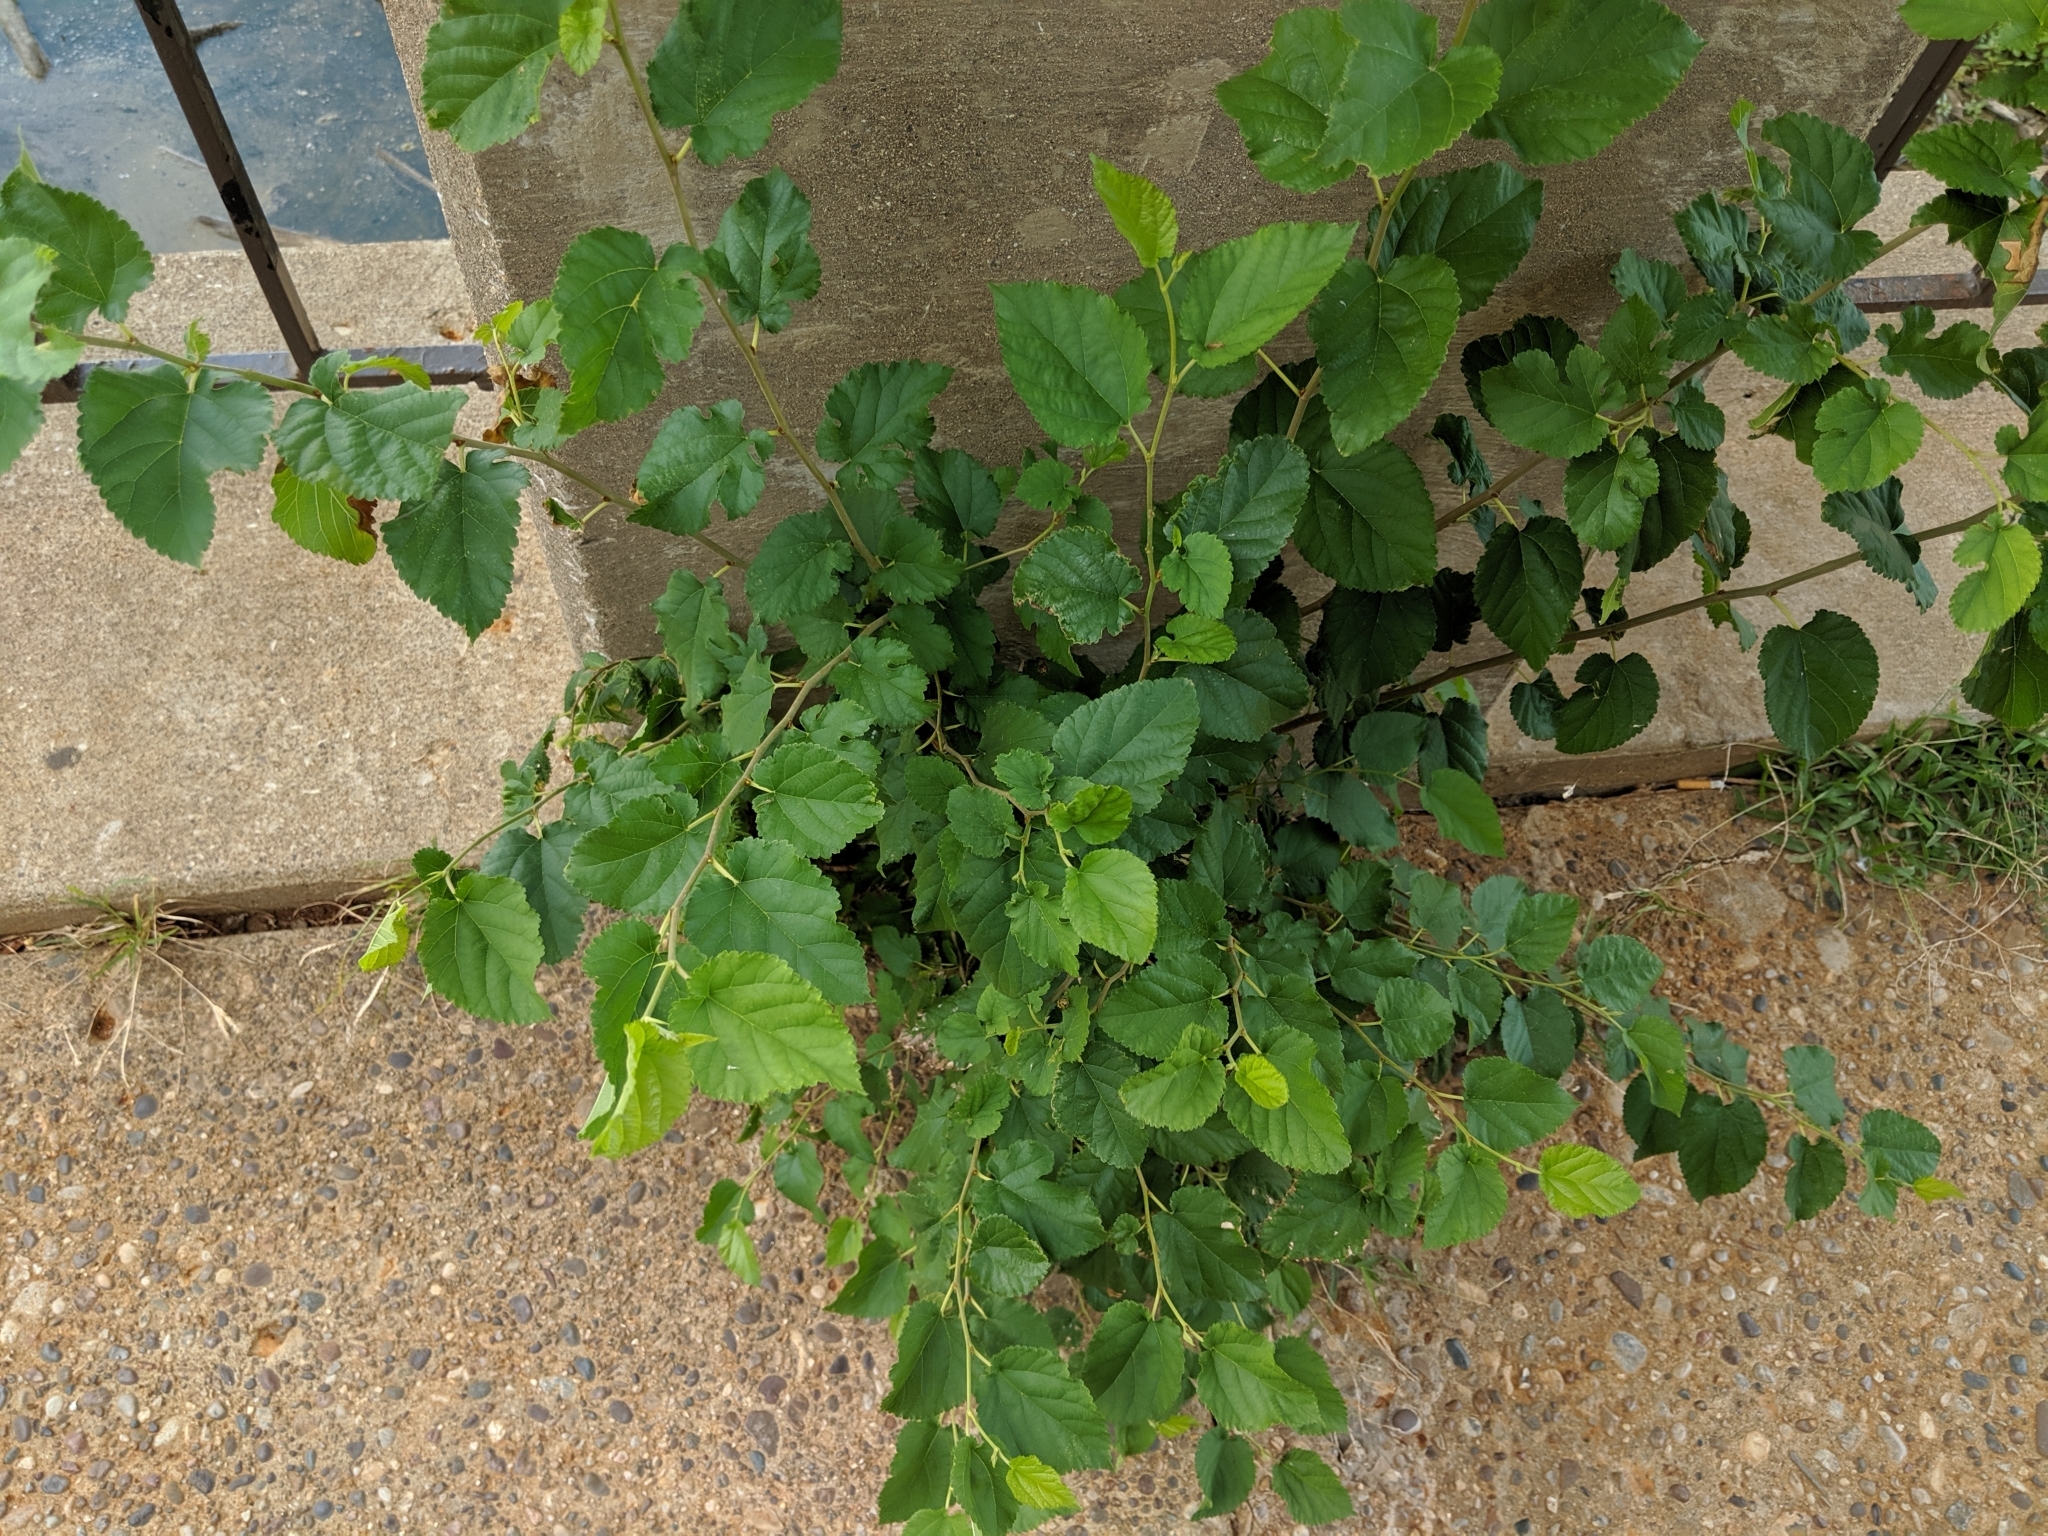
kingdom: Plantae
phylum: Tracheophyta
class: Magnoliopsida
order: Rosales
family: Moraceae
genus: Morus
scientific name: Morus alba
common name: White mulberry
